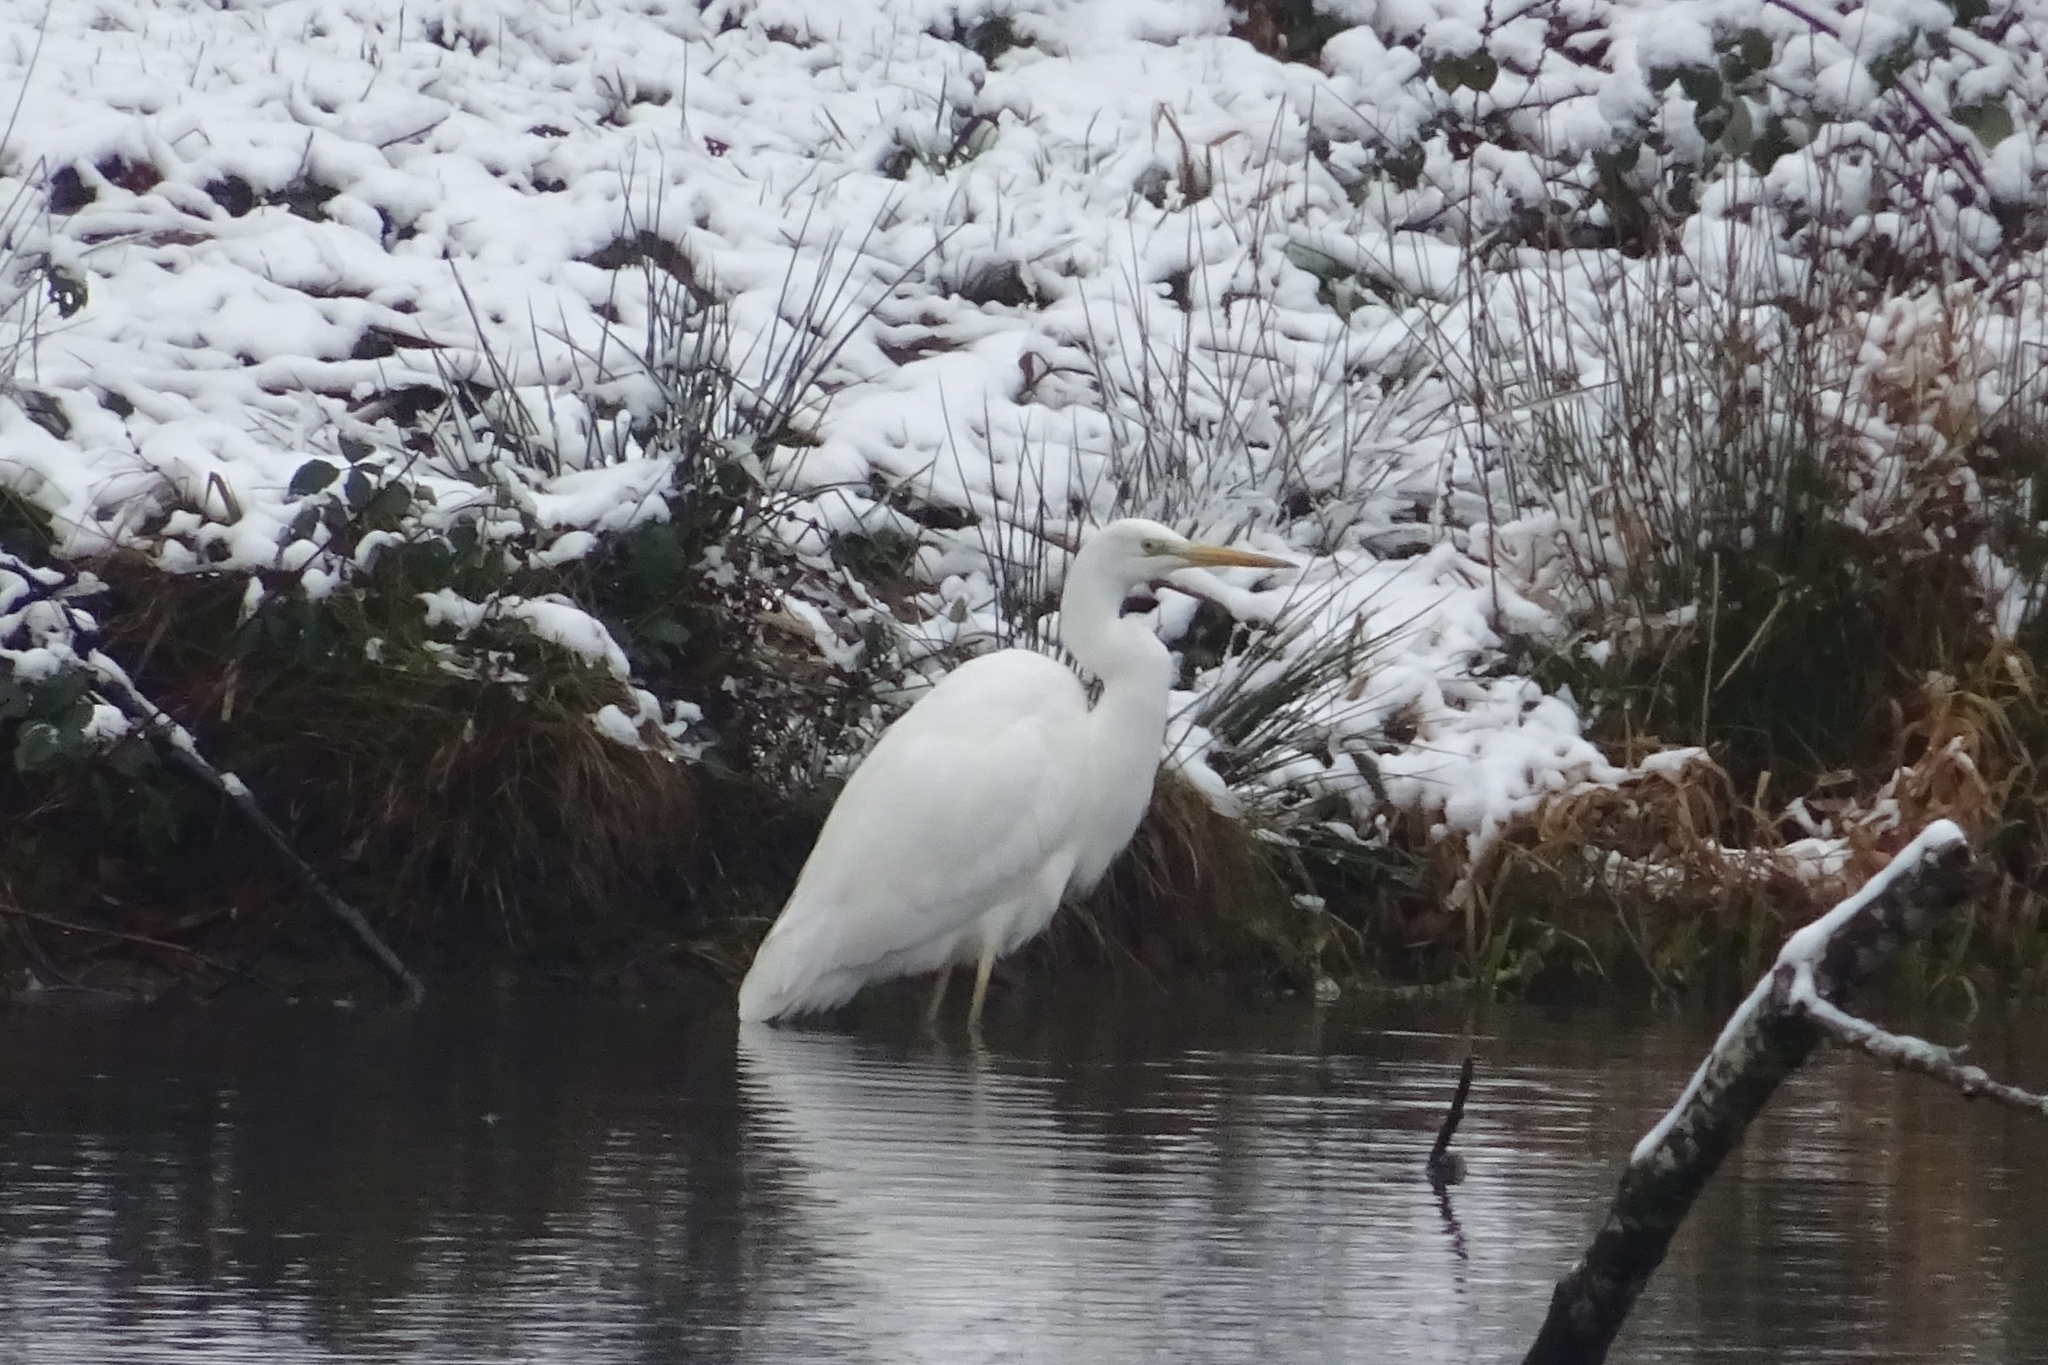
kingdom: Animalia
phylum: Chordata
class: Aves
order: Pelecaniformes
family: Ardeidae
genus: Ardea
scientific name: Ardea alba
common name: Great egret
